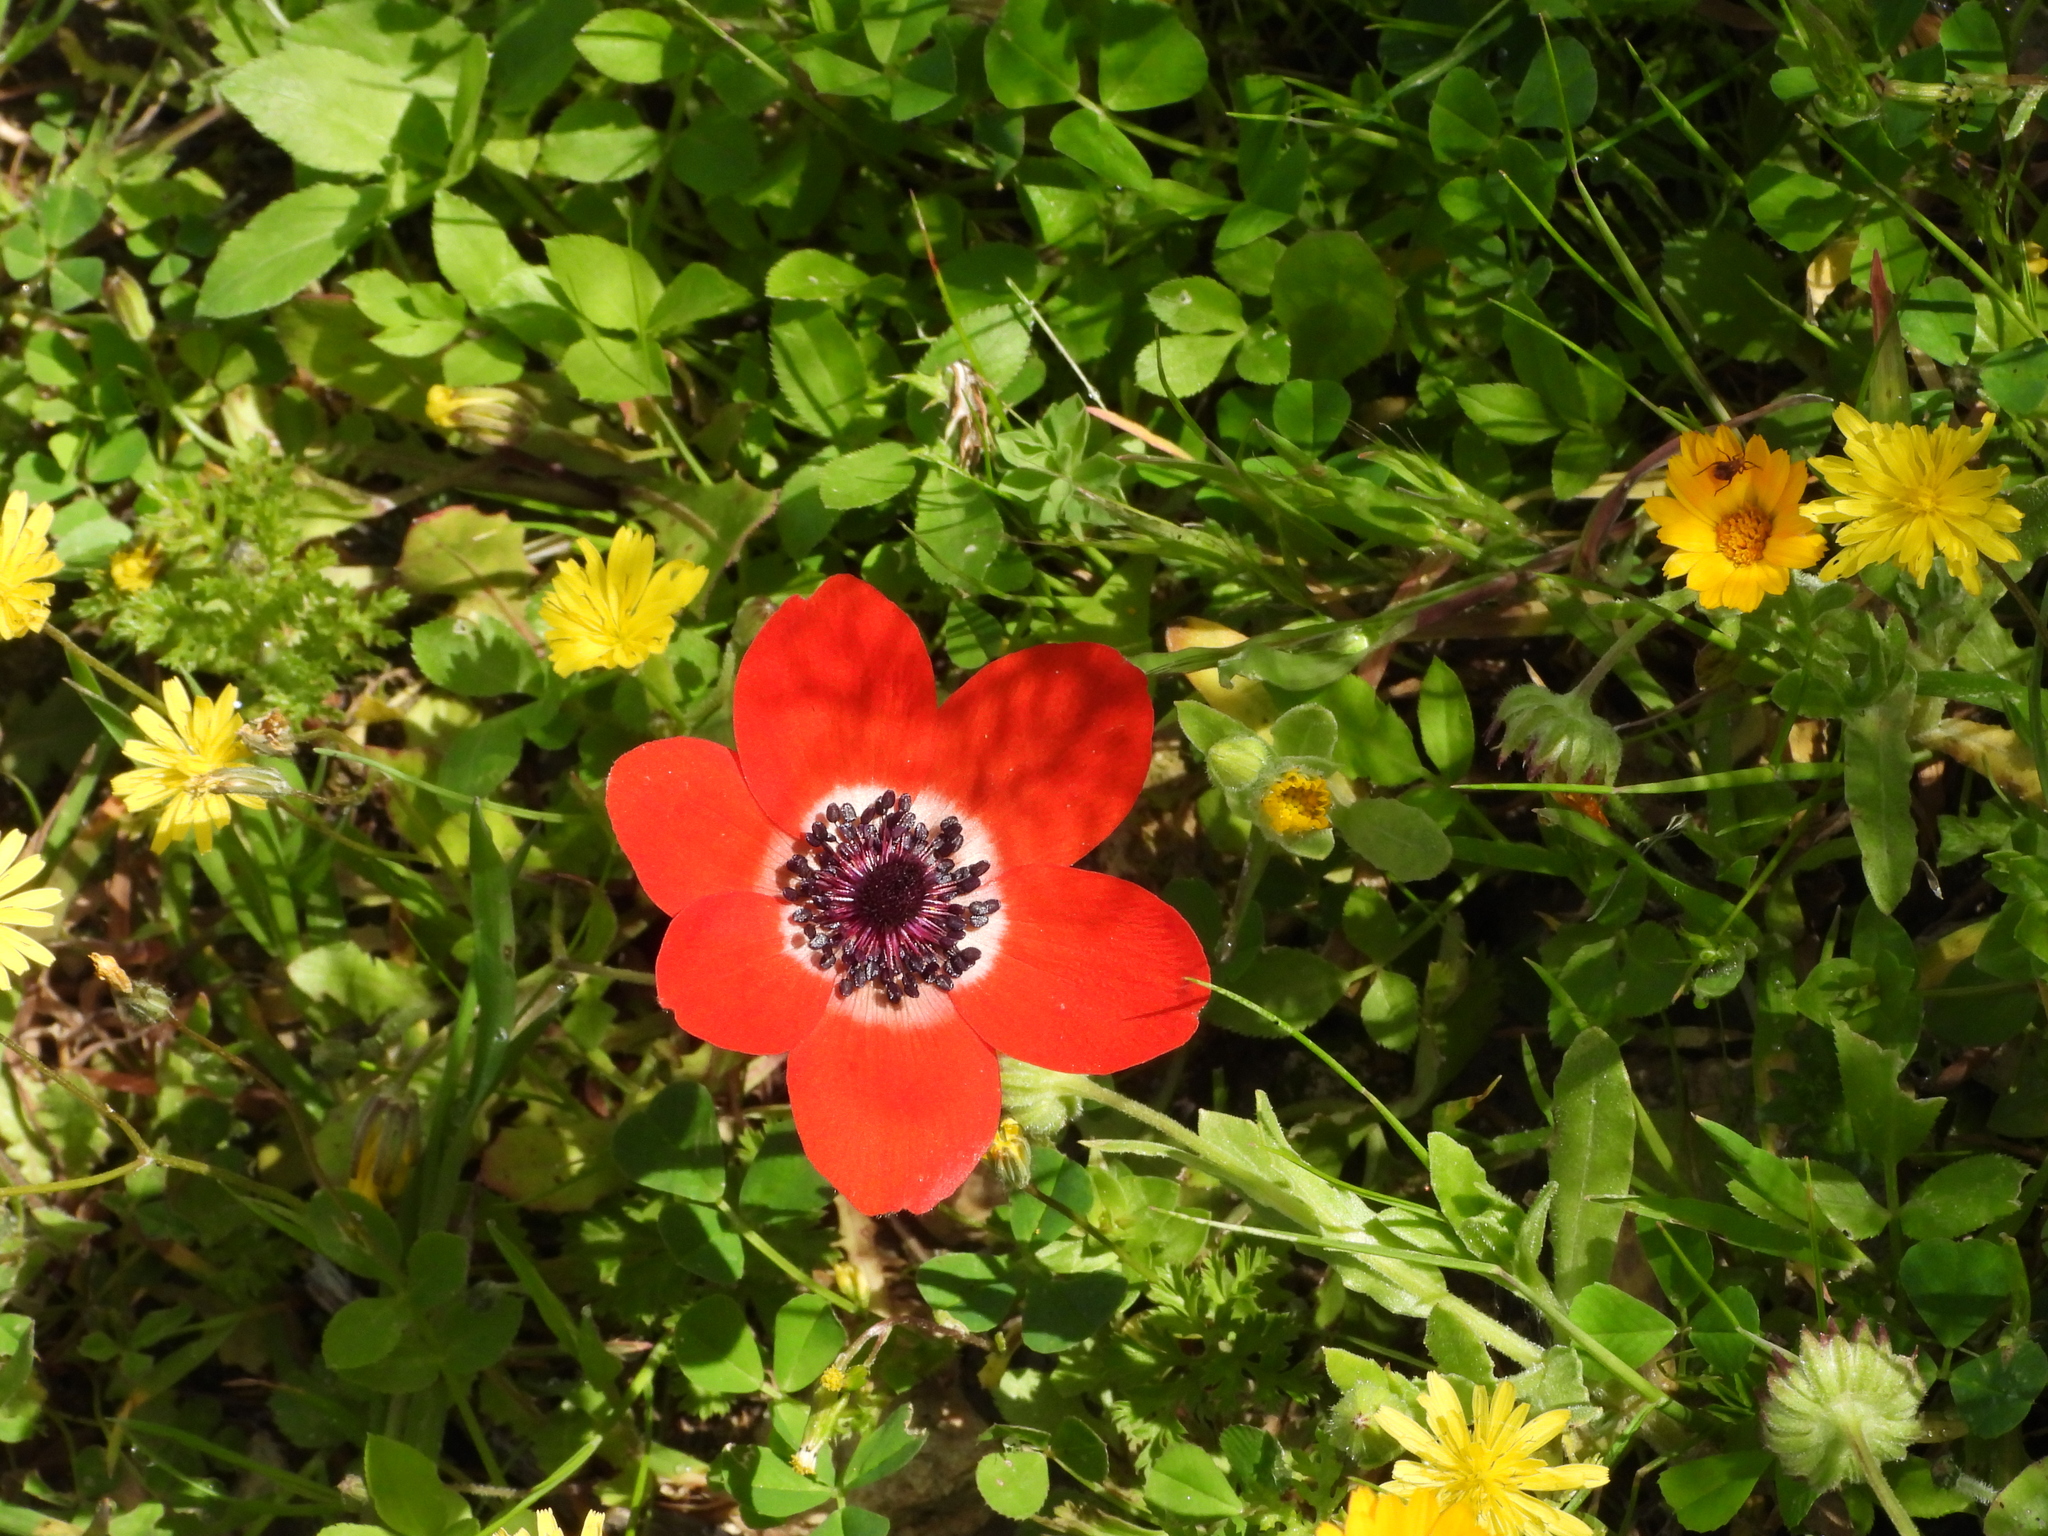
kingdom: Plantae
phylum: Tracheophyta
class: Magnoliopsida
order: Ranunculales
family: Ranunculaceae
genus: Anemone
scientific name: Anemone coronaria
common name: Poppy anemone
